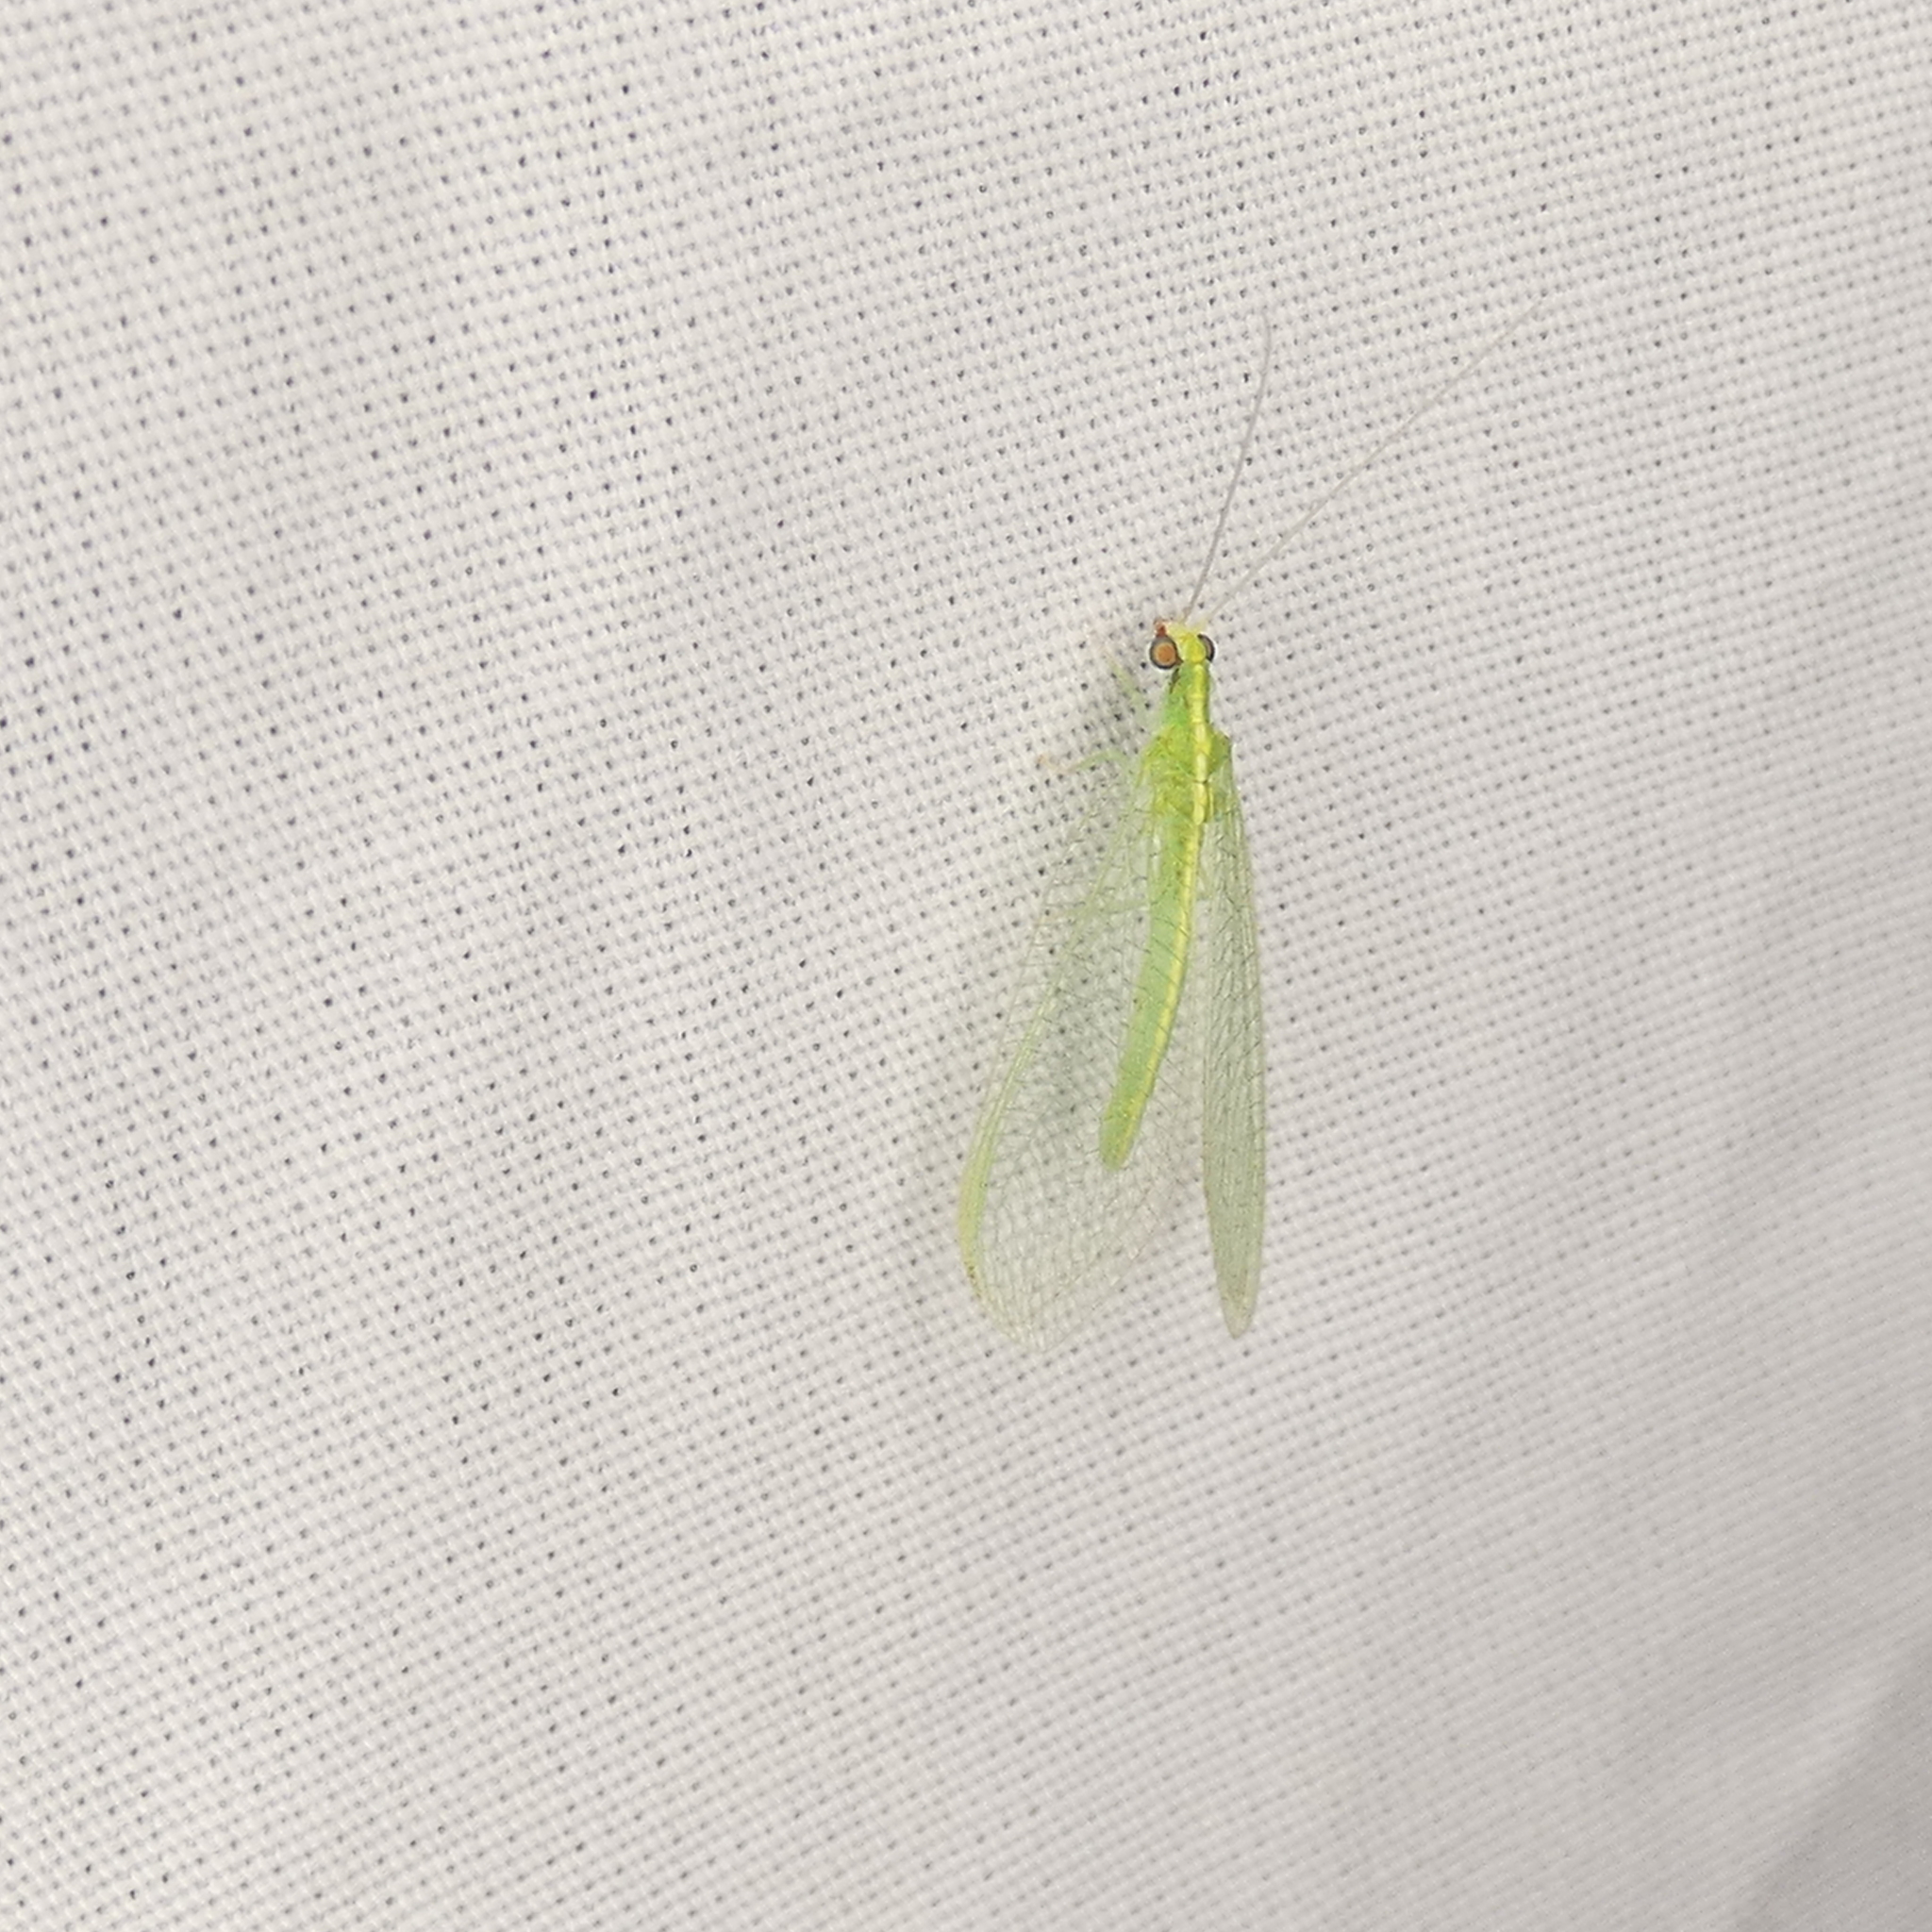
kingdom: Animalia
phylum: Arthropoda
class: Insecta
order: Neuroptera
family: Chrysopidae
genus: Chrysoperla
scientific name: Chrysoperla rufilabris
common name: Red-lipped green lacewing
